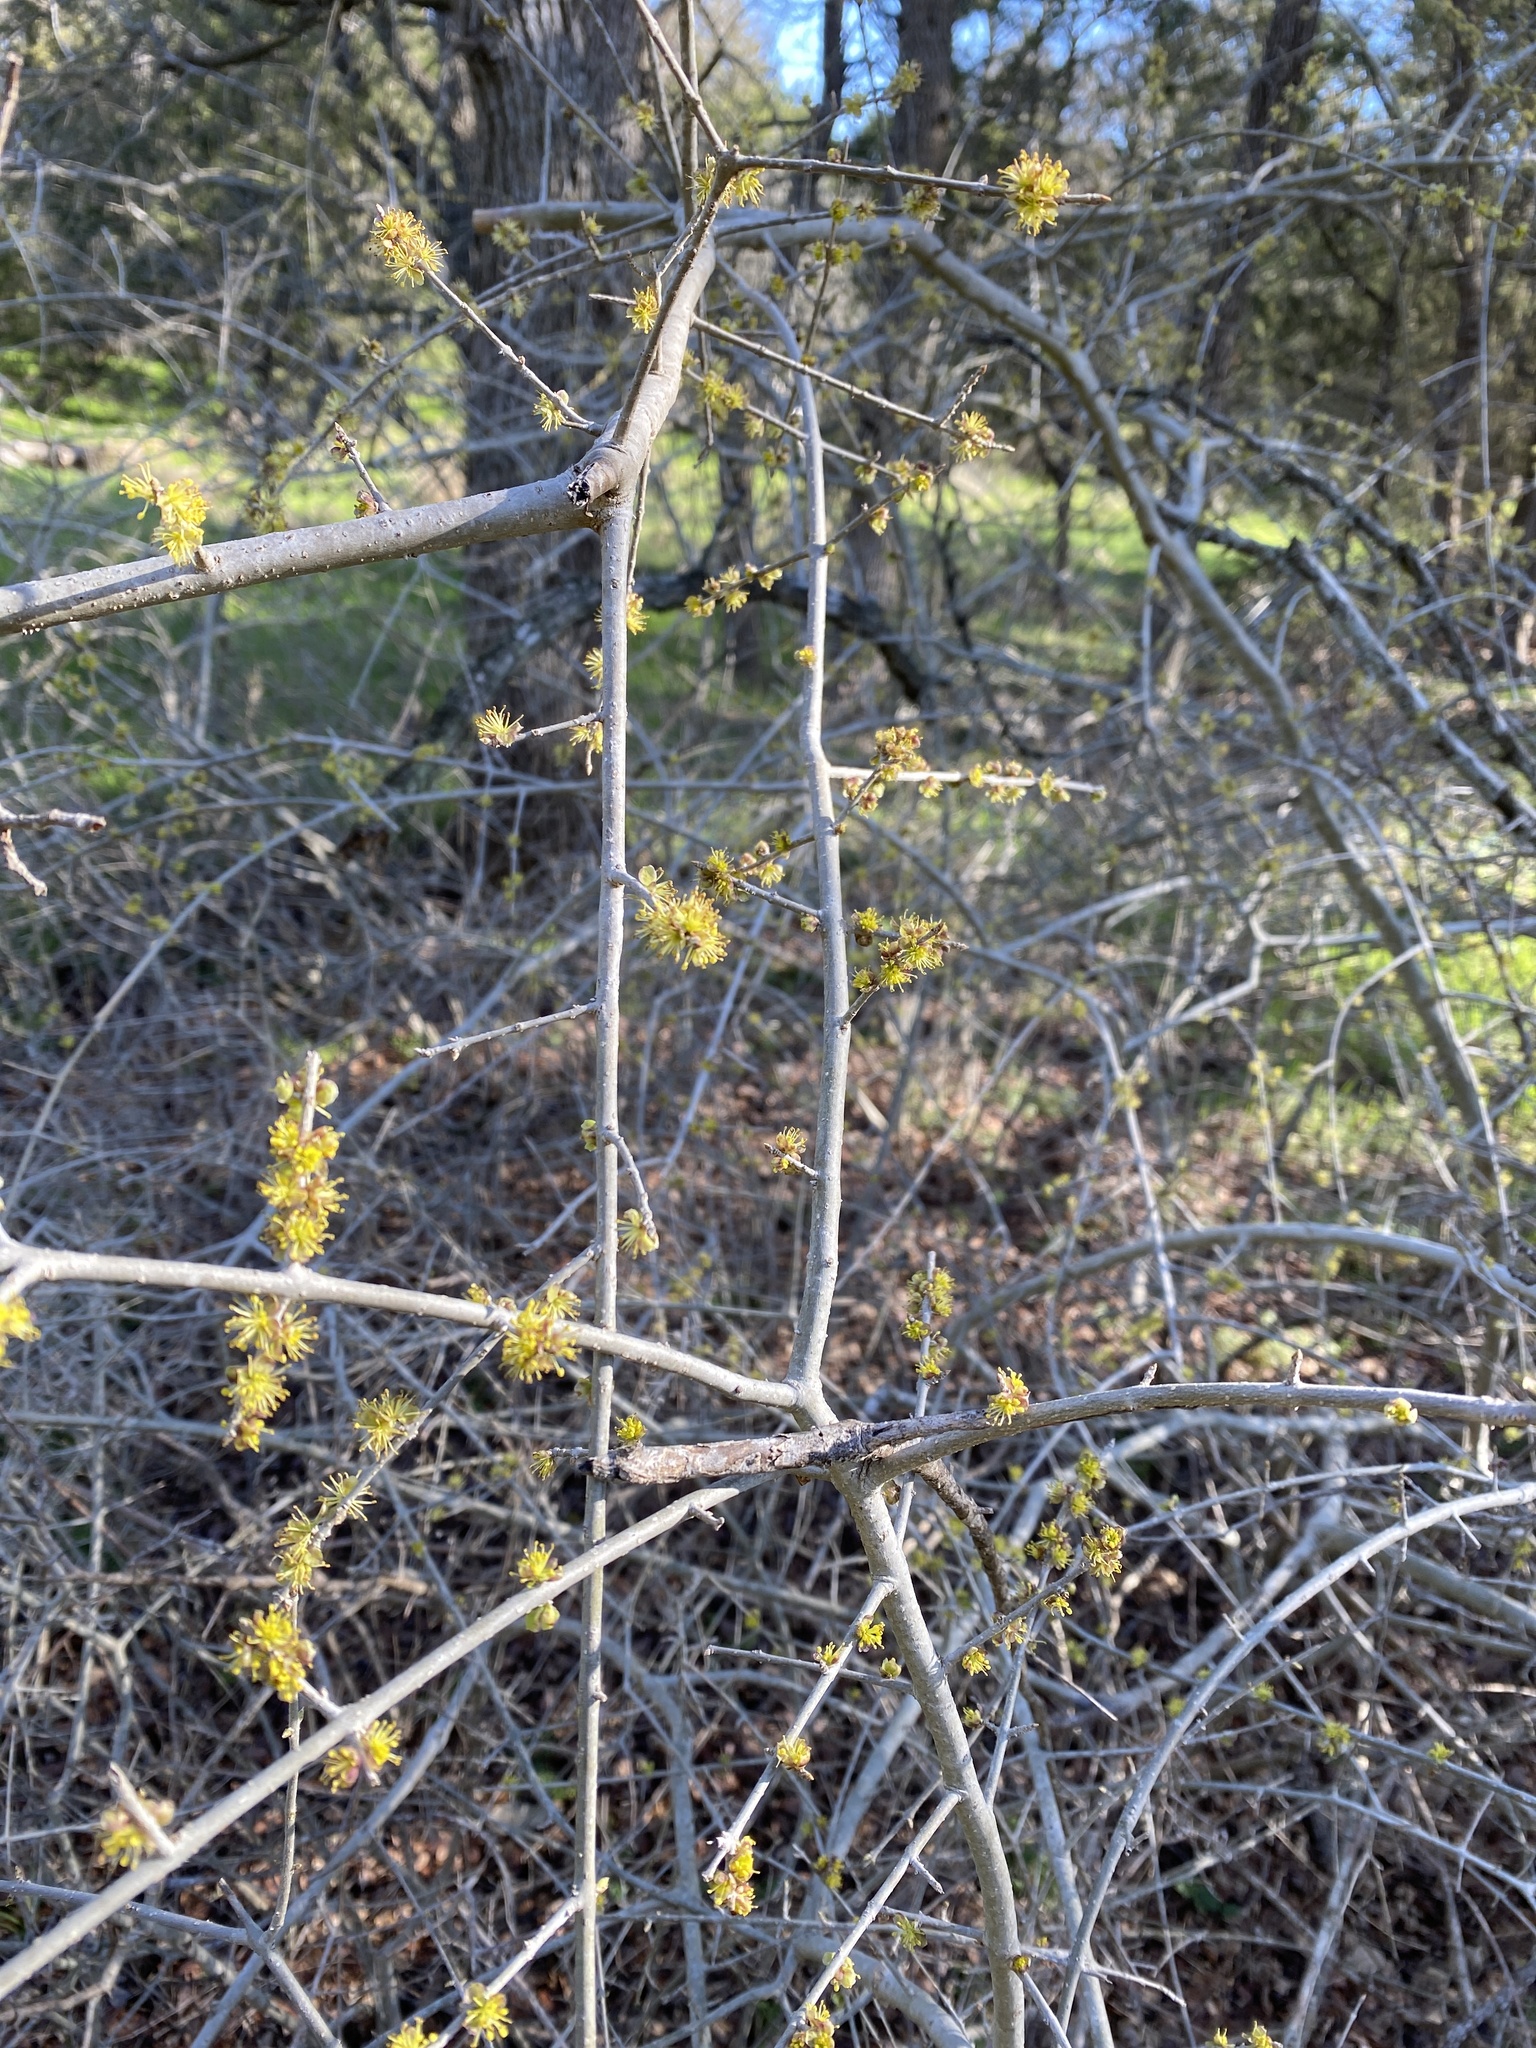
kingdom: Plantae
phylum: Tracheophyta
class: Magnoliopsida
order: Lamiales
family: Oleaceae
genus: Forestiera
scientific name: Forestiera pubescens
